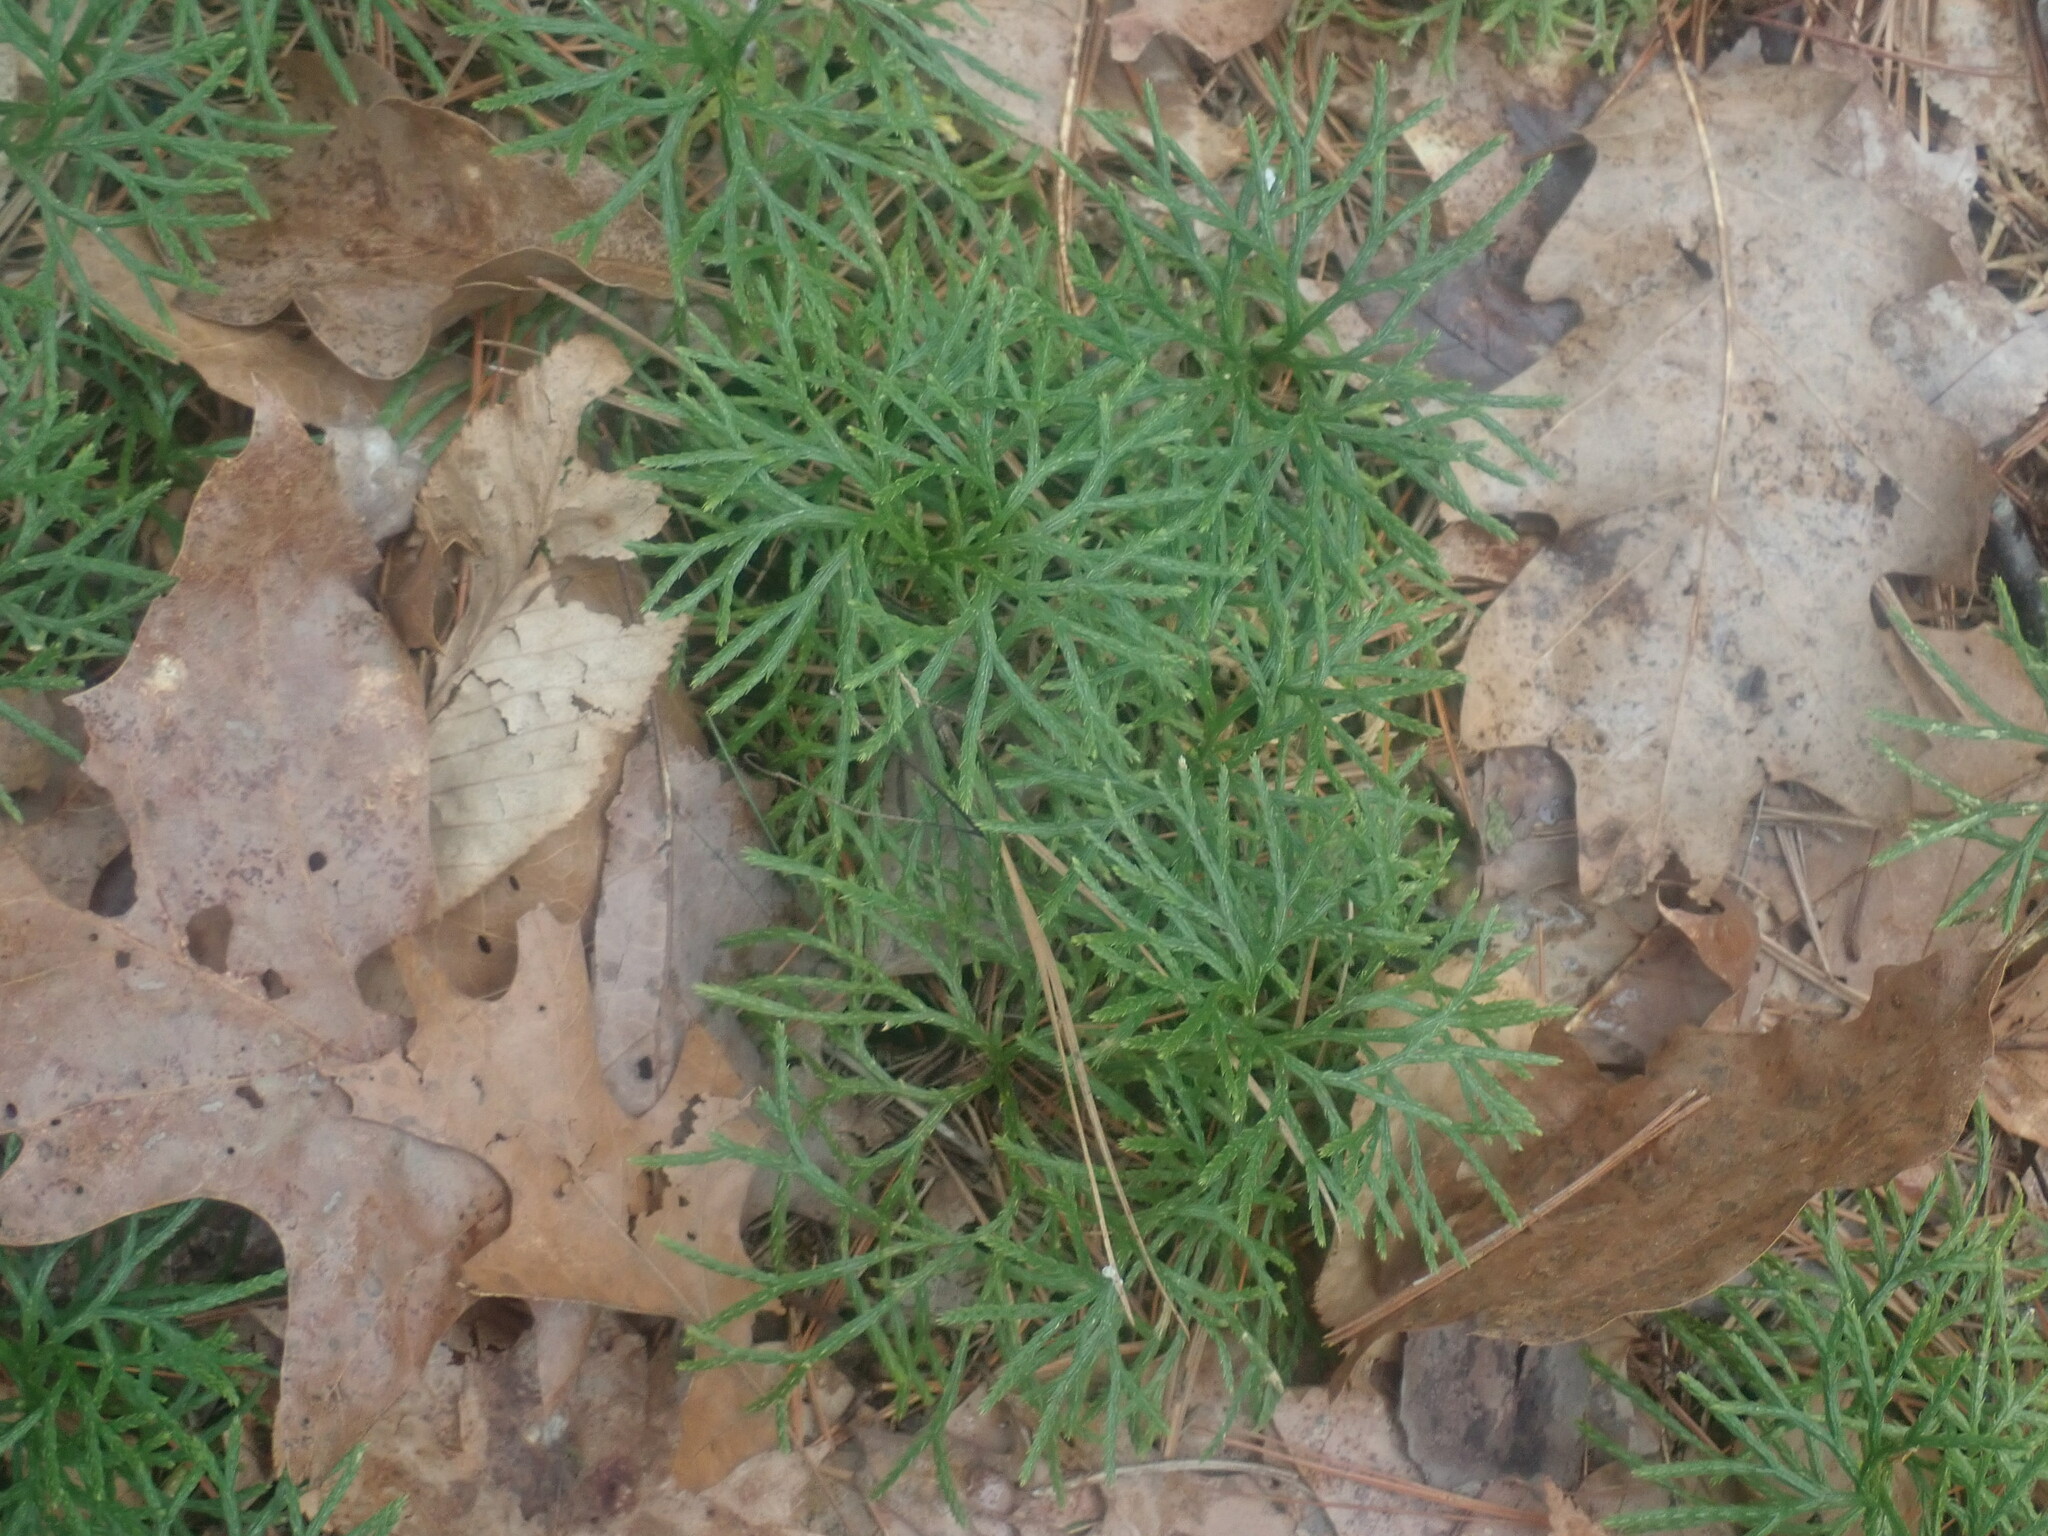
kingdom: Plantae
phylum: Tracheophyta
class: Lycopodiopsida
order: Lycopodiales
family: Lycopodiaceae
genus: Diphasiastrum
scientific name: Diphasiastrum digitatum
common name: Southern running-pine
